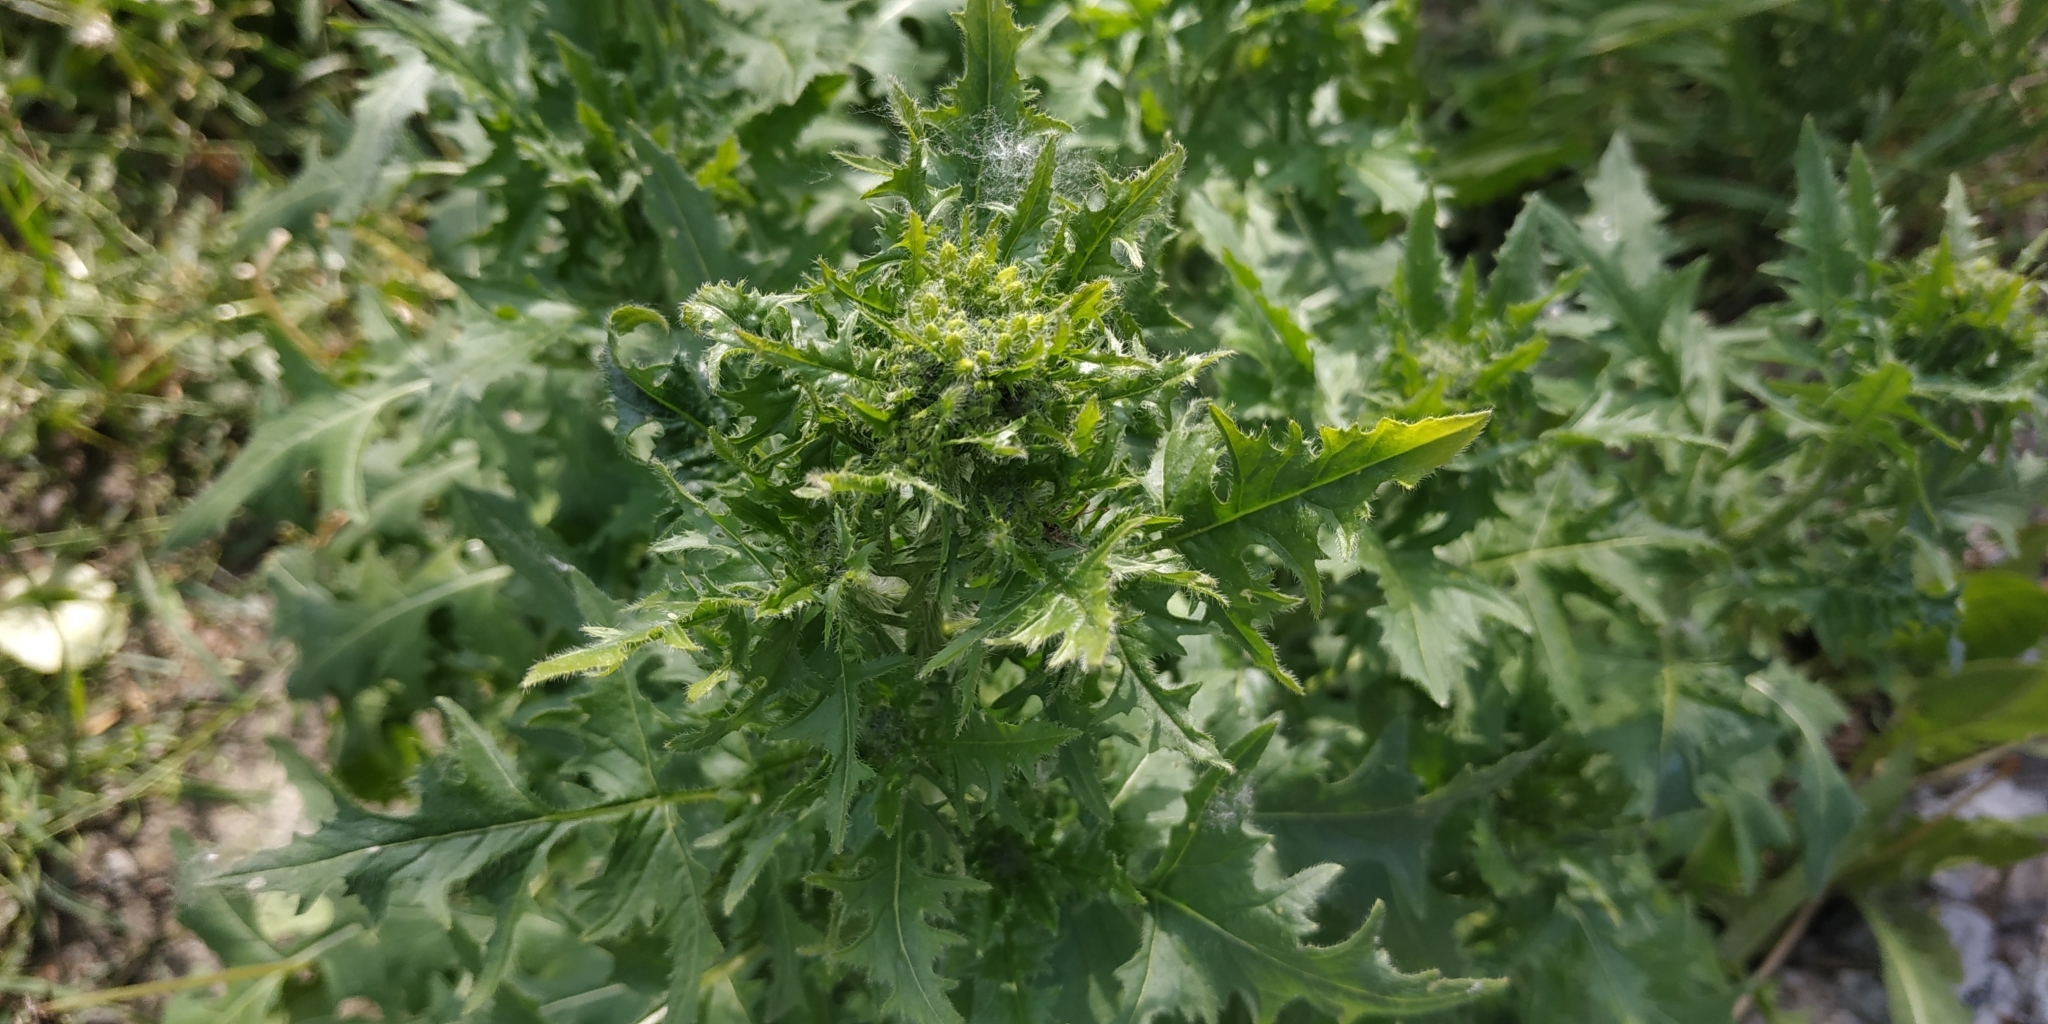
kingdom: Plantae
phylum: Tracheophyta
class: Magnoliopsida
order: Brassicales
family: Brassicaceae
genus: Sisymbrium
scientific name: Sisymbrium loeselii
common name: False london-rocket
